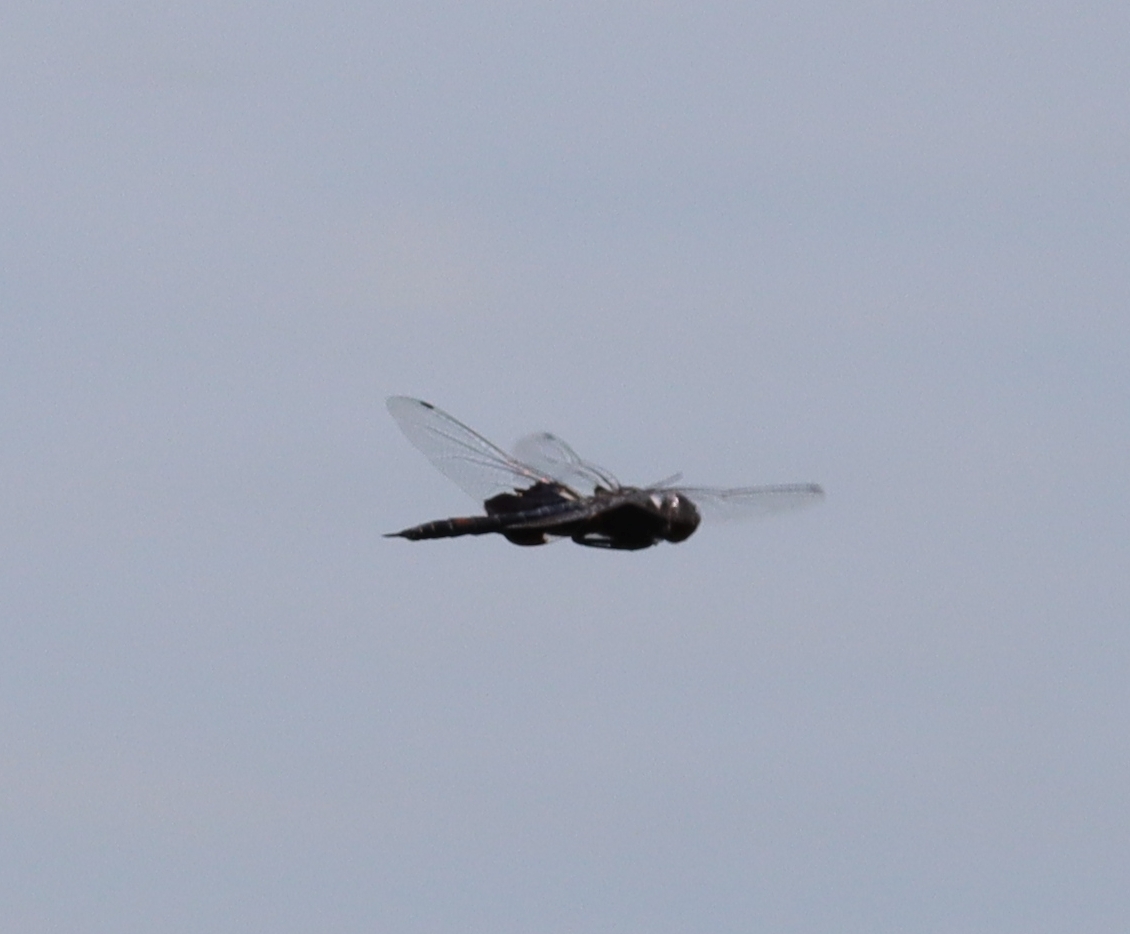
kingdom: Animalia
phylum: Arthropoda
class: Insecta
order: Odonata
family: Libellulidae
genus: Tramea
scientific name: Tramea lacerata
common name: Black saddlebags
